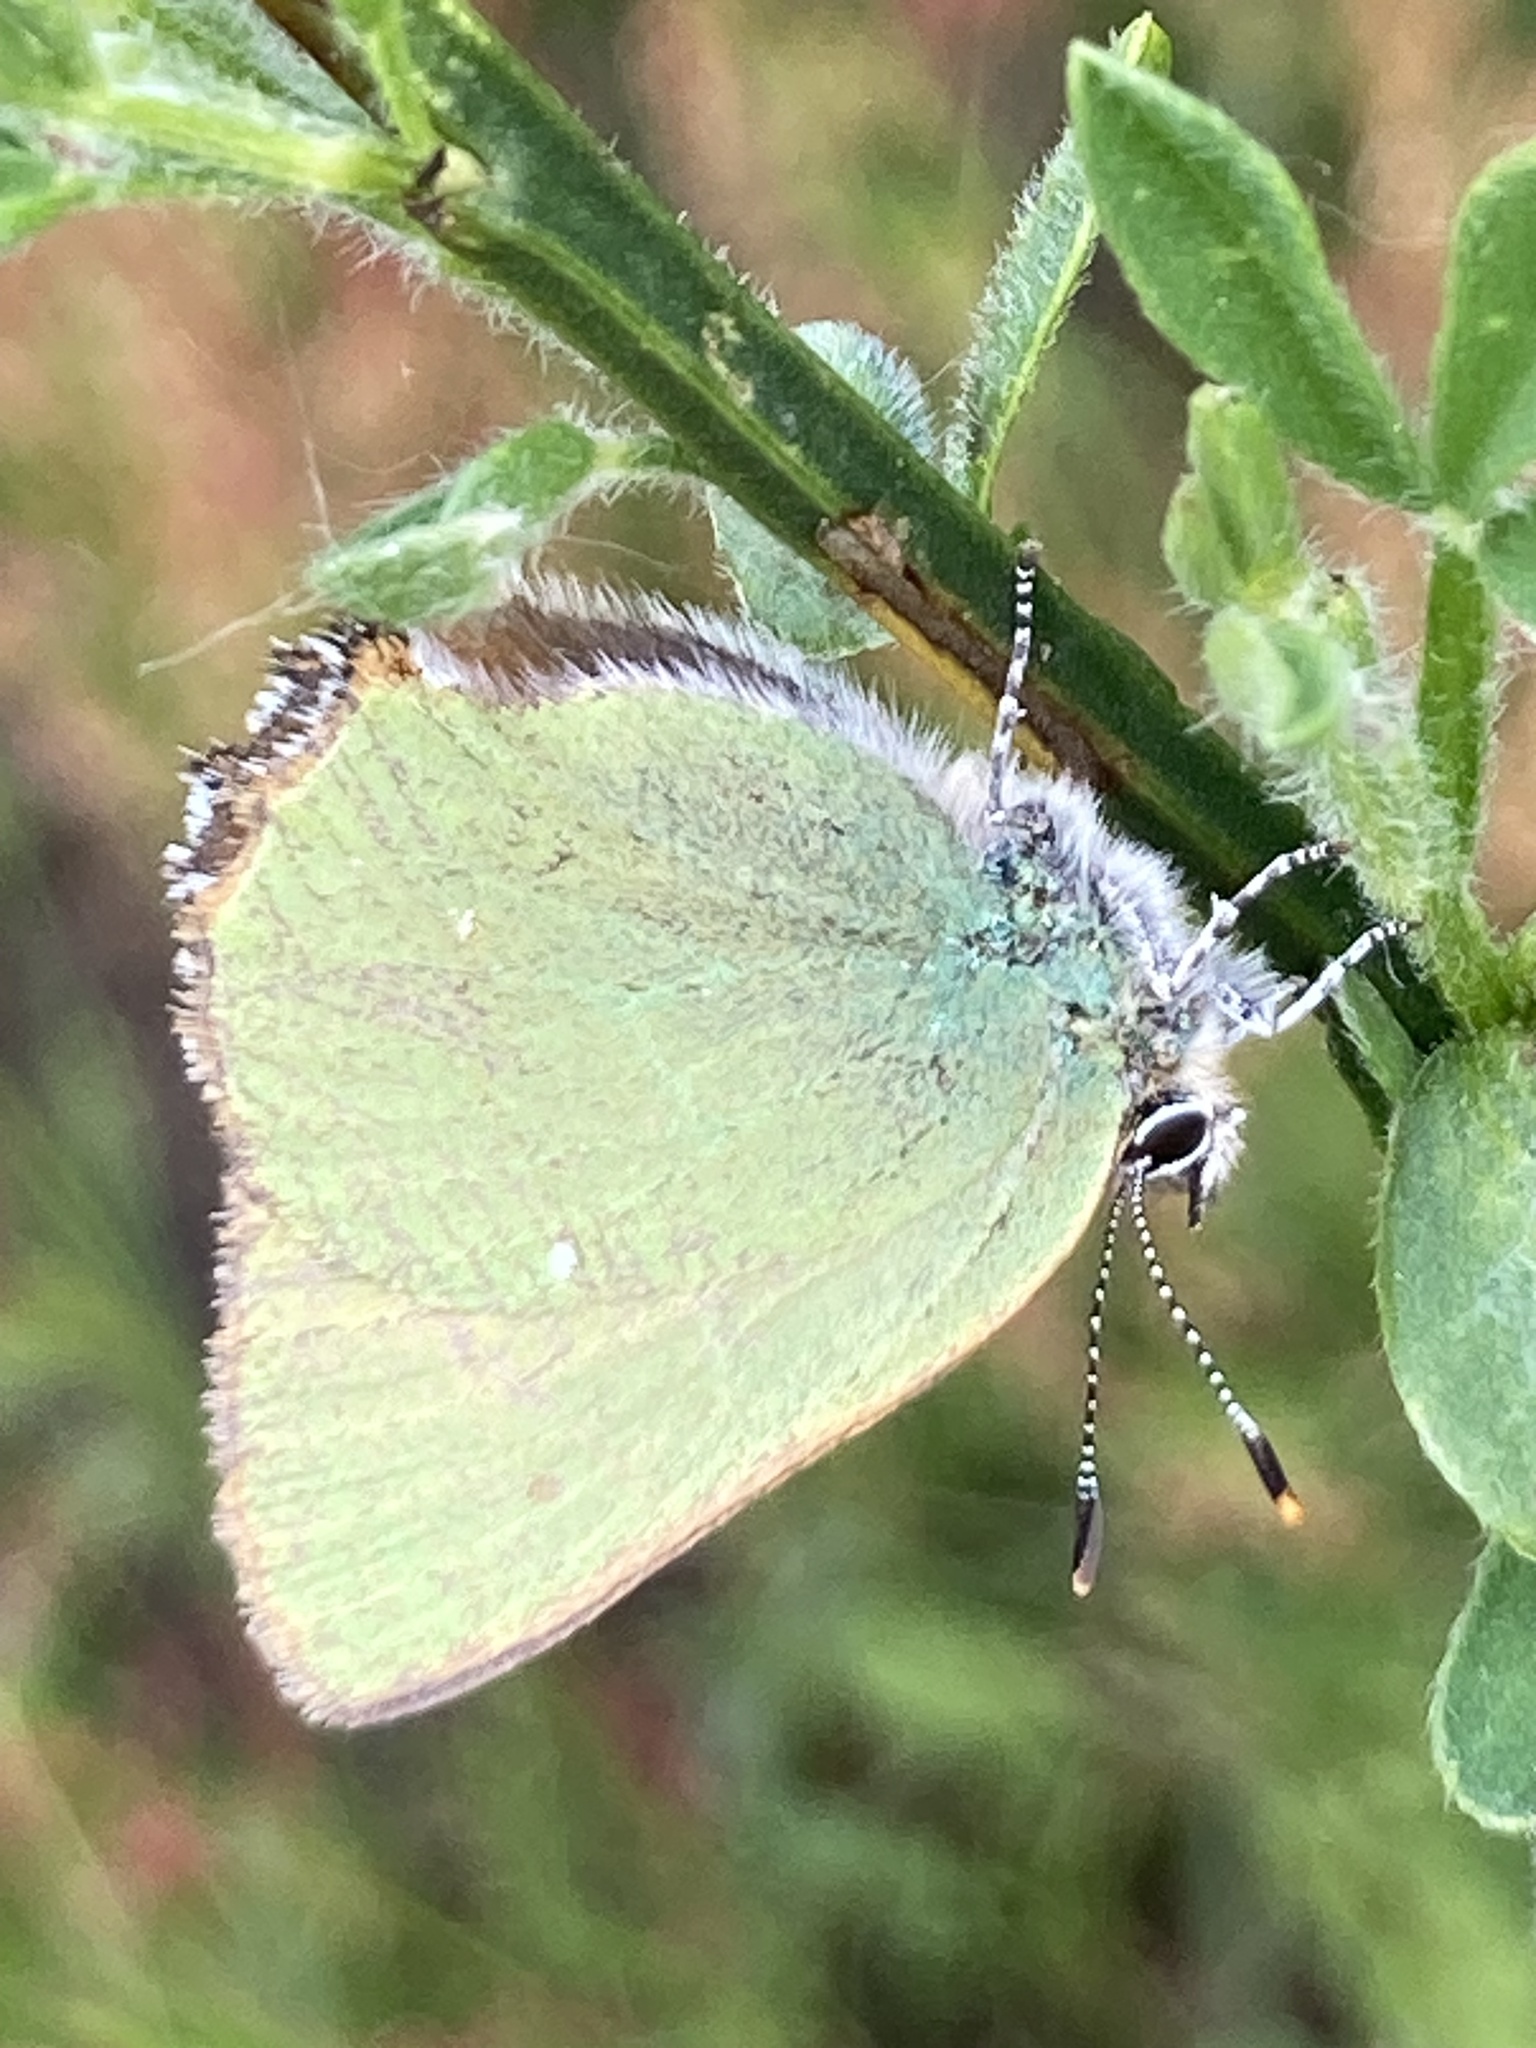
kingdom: Animalia
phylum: Arthropoda
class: Insecta
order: Lepidoptera
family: Lycaenidae
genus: Callophrys
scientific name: Callophrys rubi
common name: Green hairstreak
